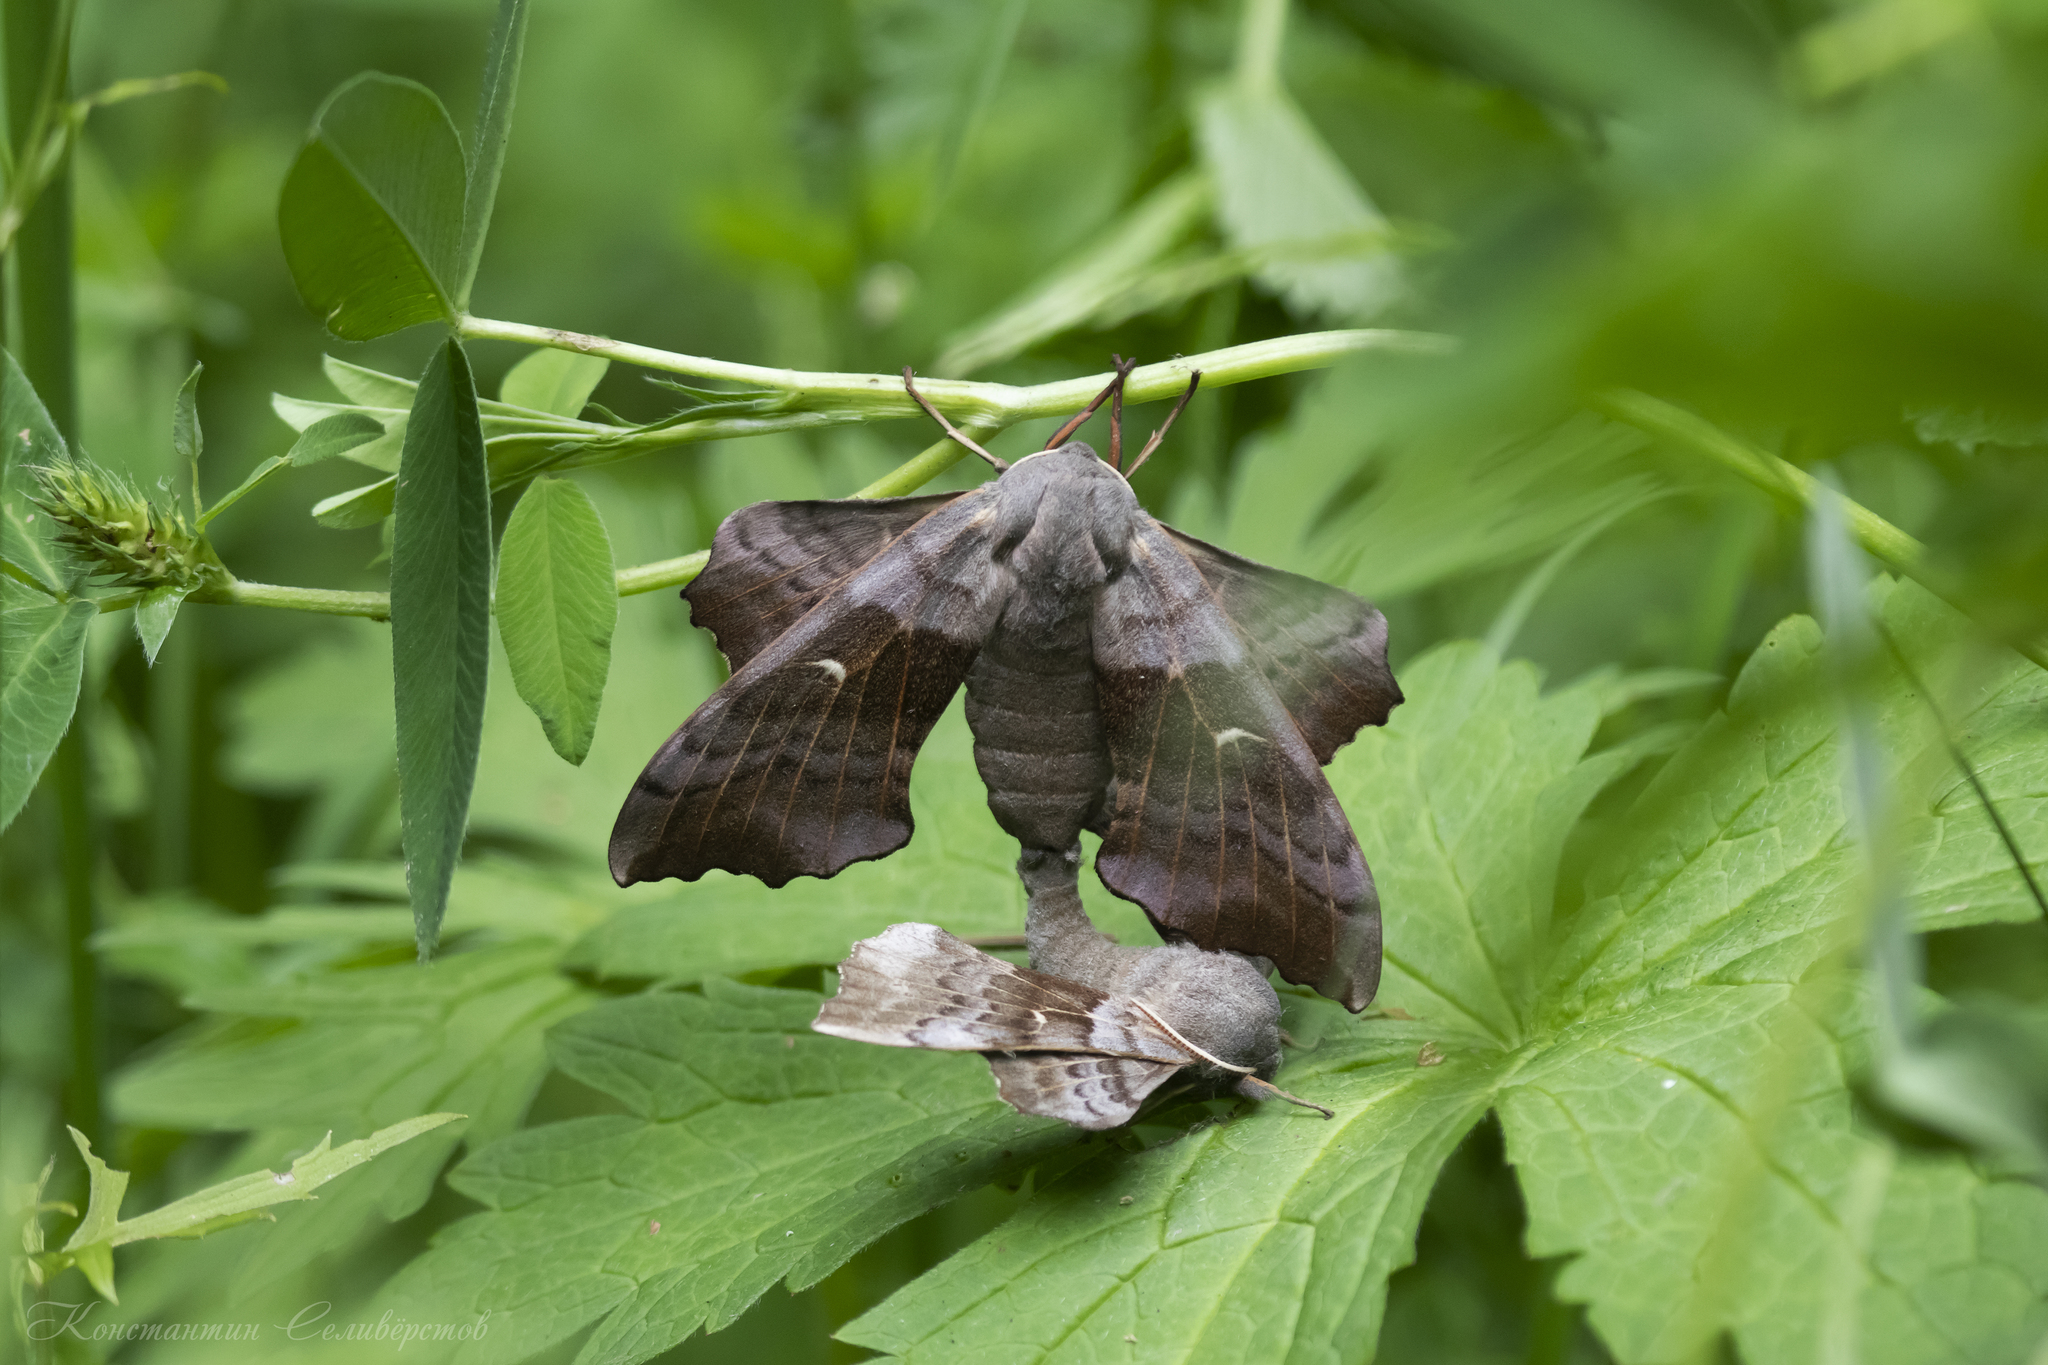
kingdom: Animalia
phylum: Arthropoda
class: Insecta
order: Lepidoptera
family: Sphingidae
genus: Laothoe
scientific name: Laothoe populi
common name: Poplar hawk-moth
